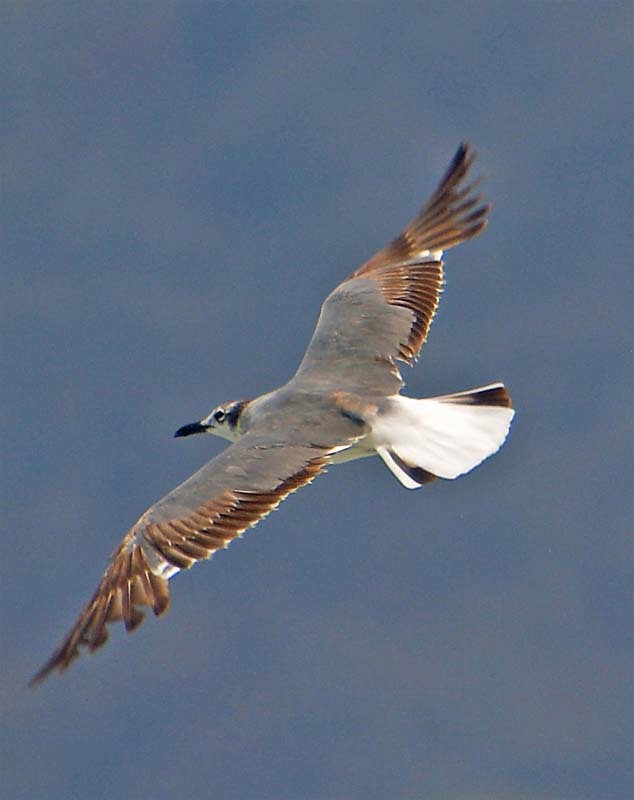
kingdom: Animalia
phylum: Chordata
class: Aves
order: Charadriiformes
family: Laridae
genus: Leucophaeus
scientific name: Leucophaeus atricilla
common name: Laughing gull
